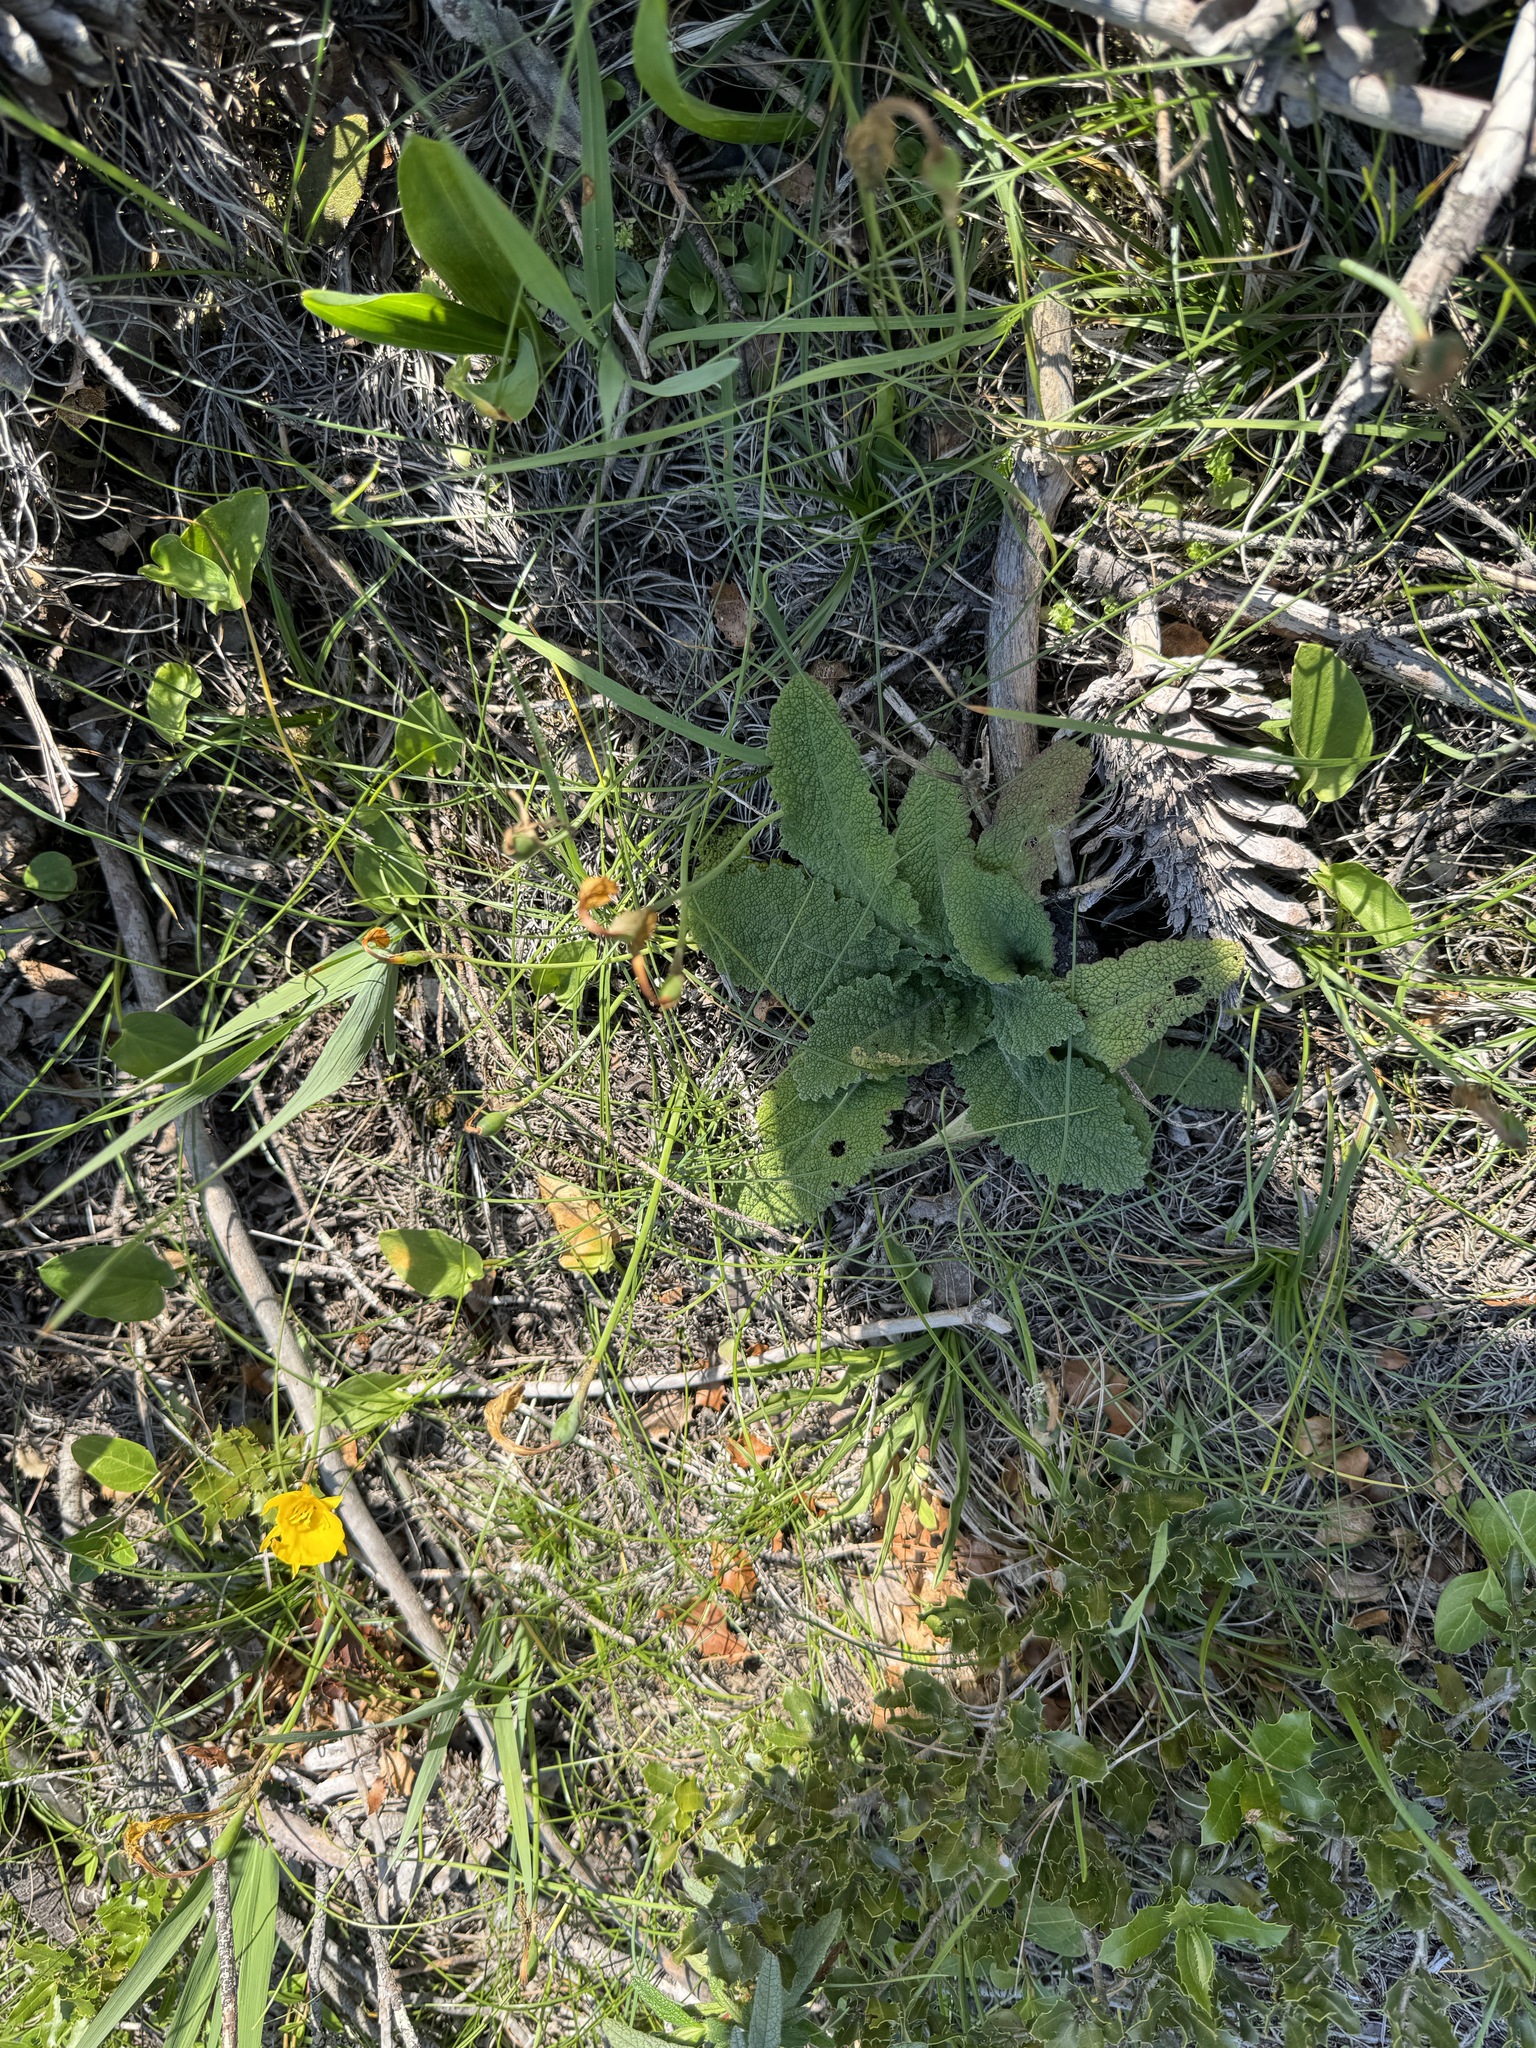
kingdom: Plantae
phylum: Tracheophyta
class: Magnoliopsida
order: Lamiales
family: Lamiaceae
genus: Salvia
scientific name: Salvia sclareoides
